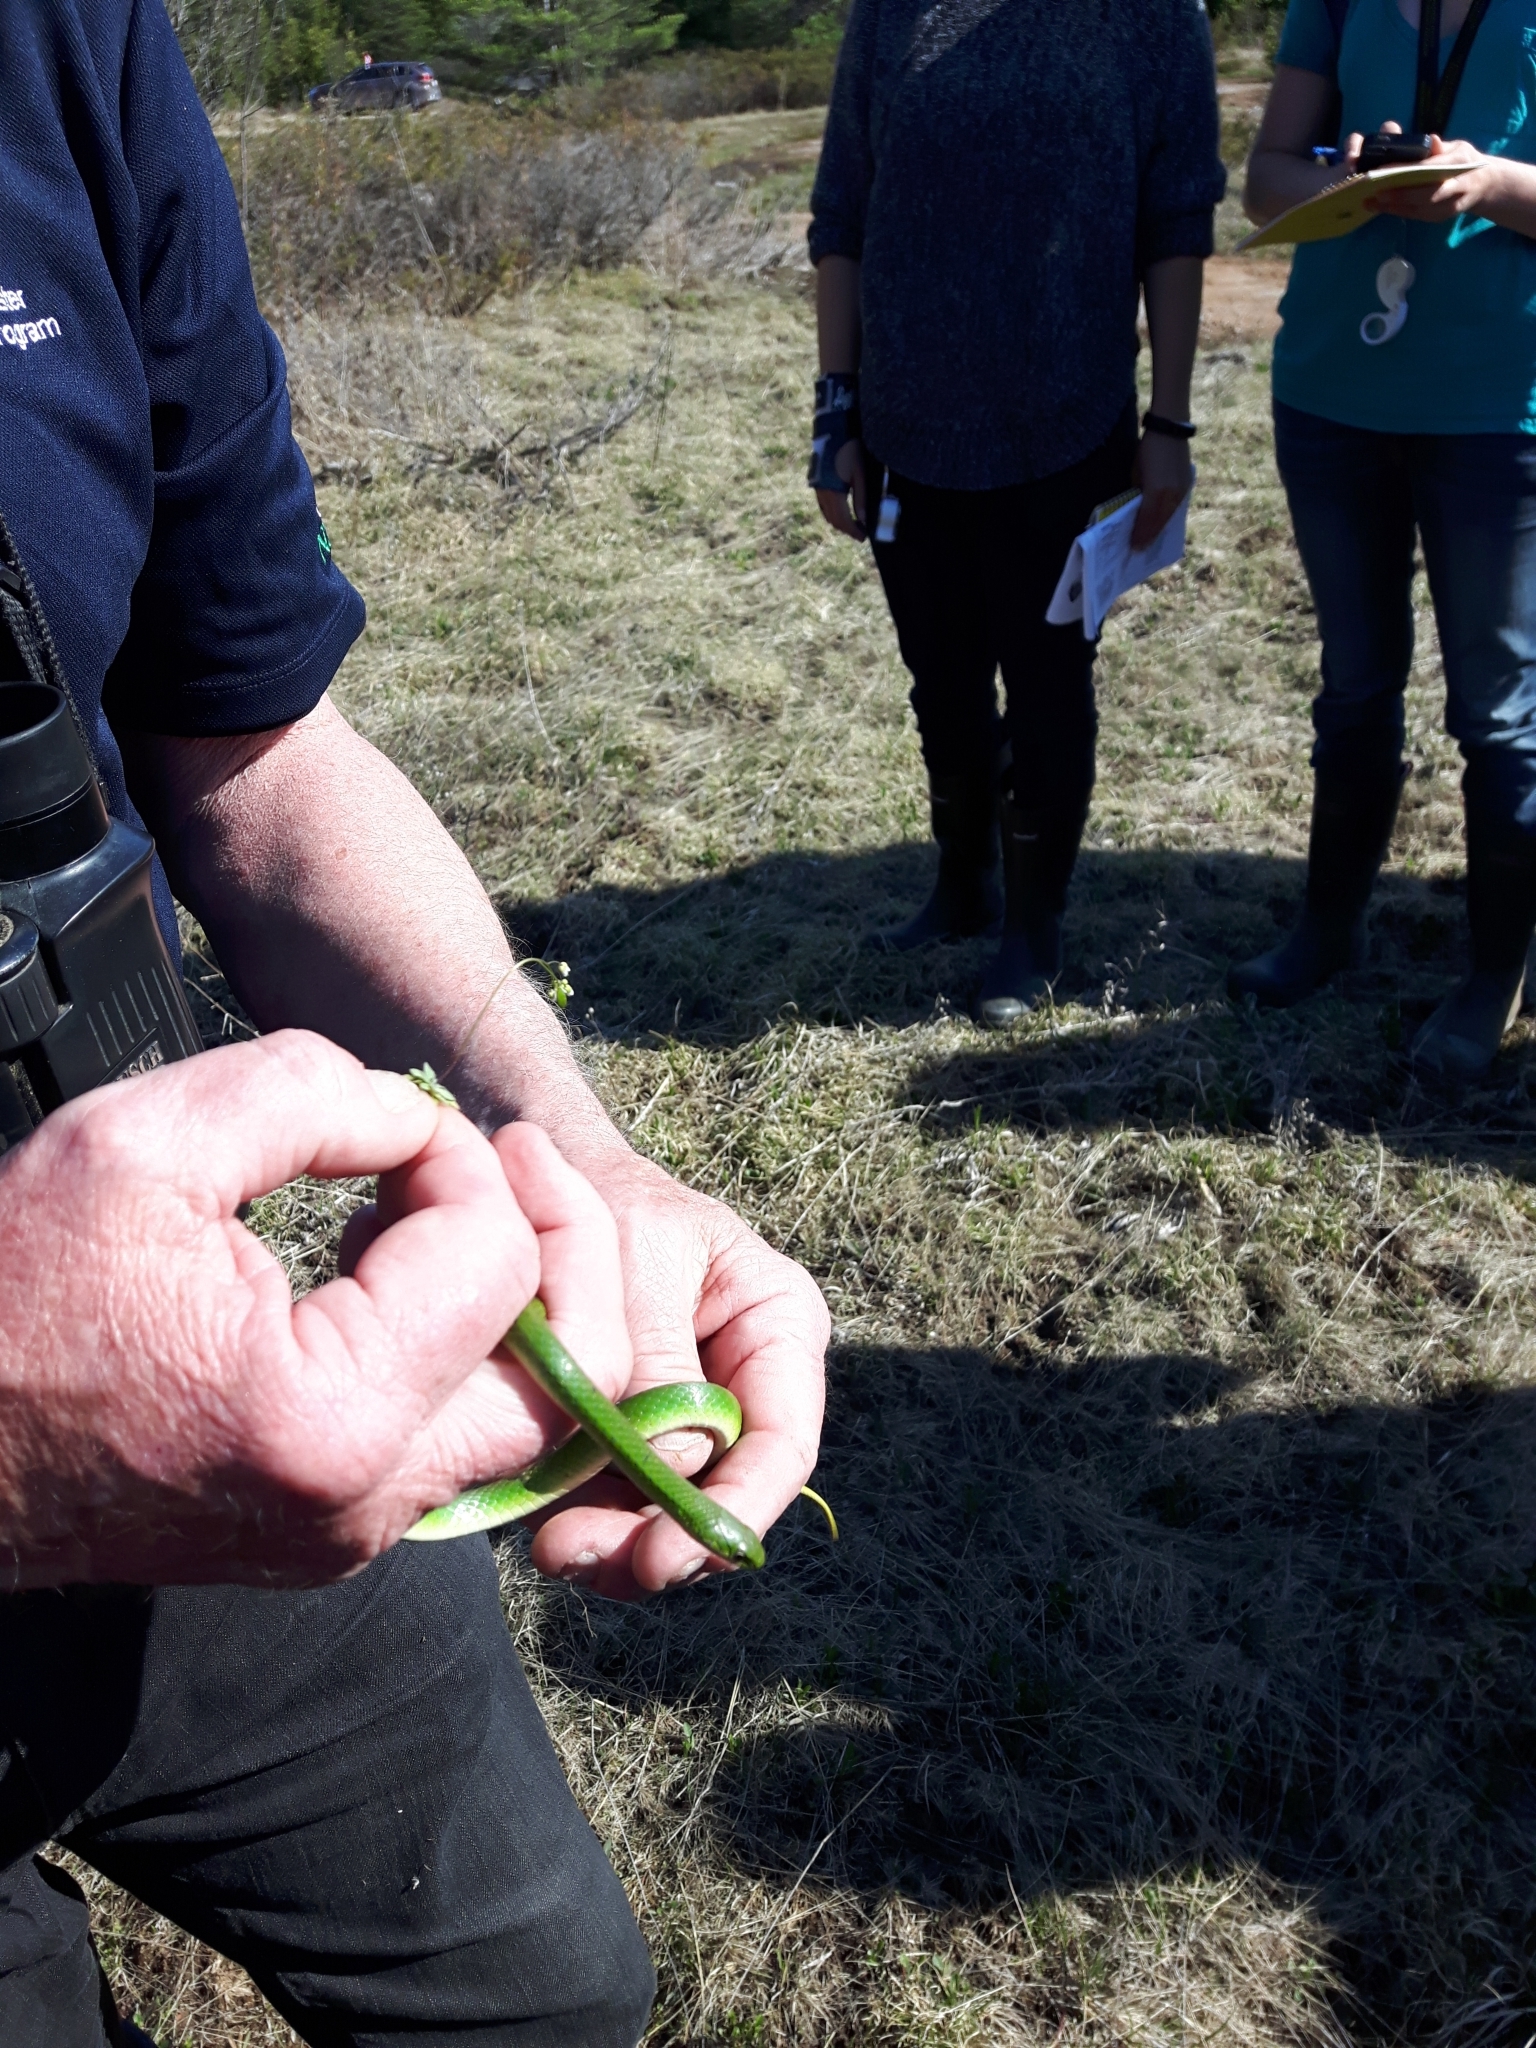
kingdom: Animalia
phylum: Chordata
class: Squamata
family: Colubridae
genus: Opheodrys
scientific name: Opheodrys vernalis
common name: Smooth green snake
